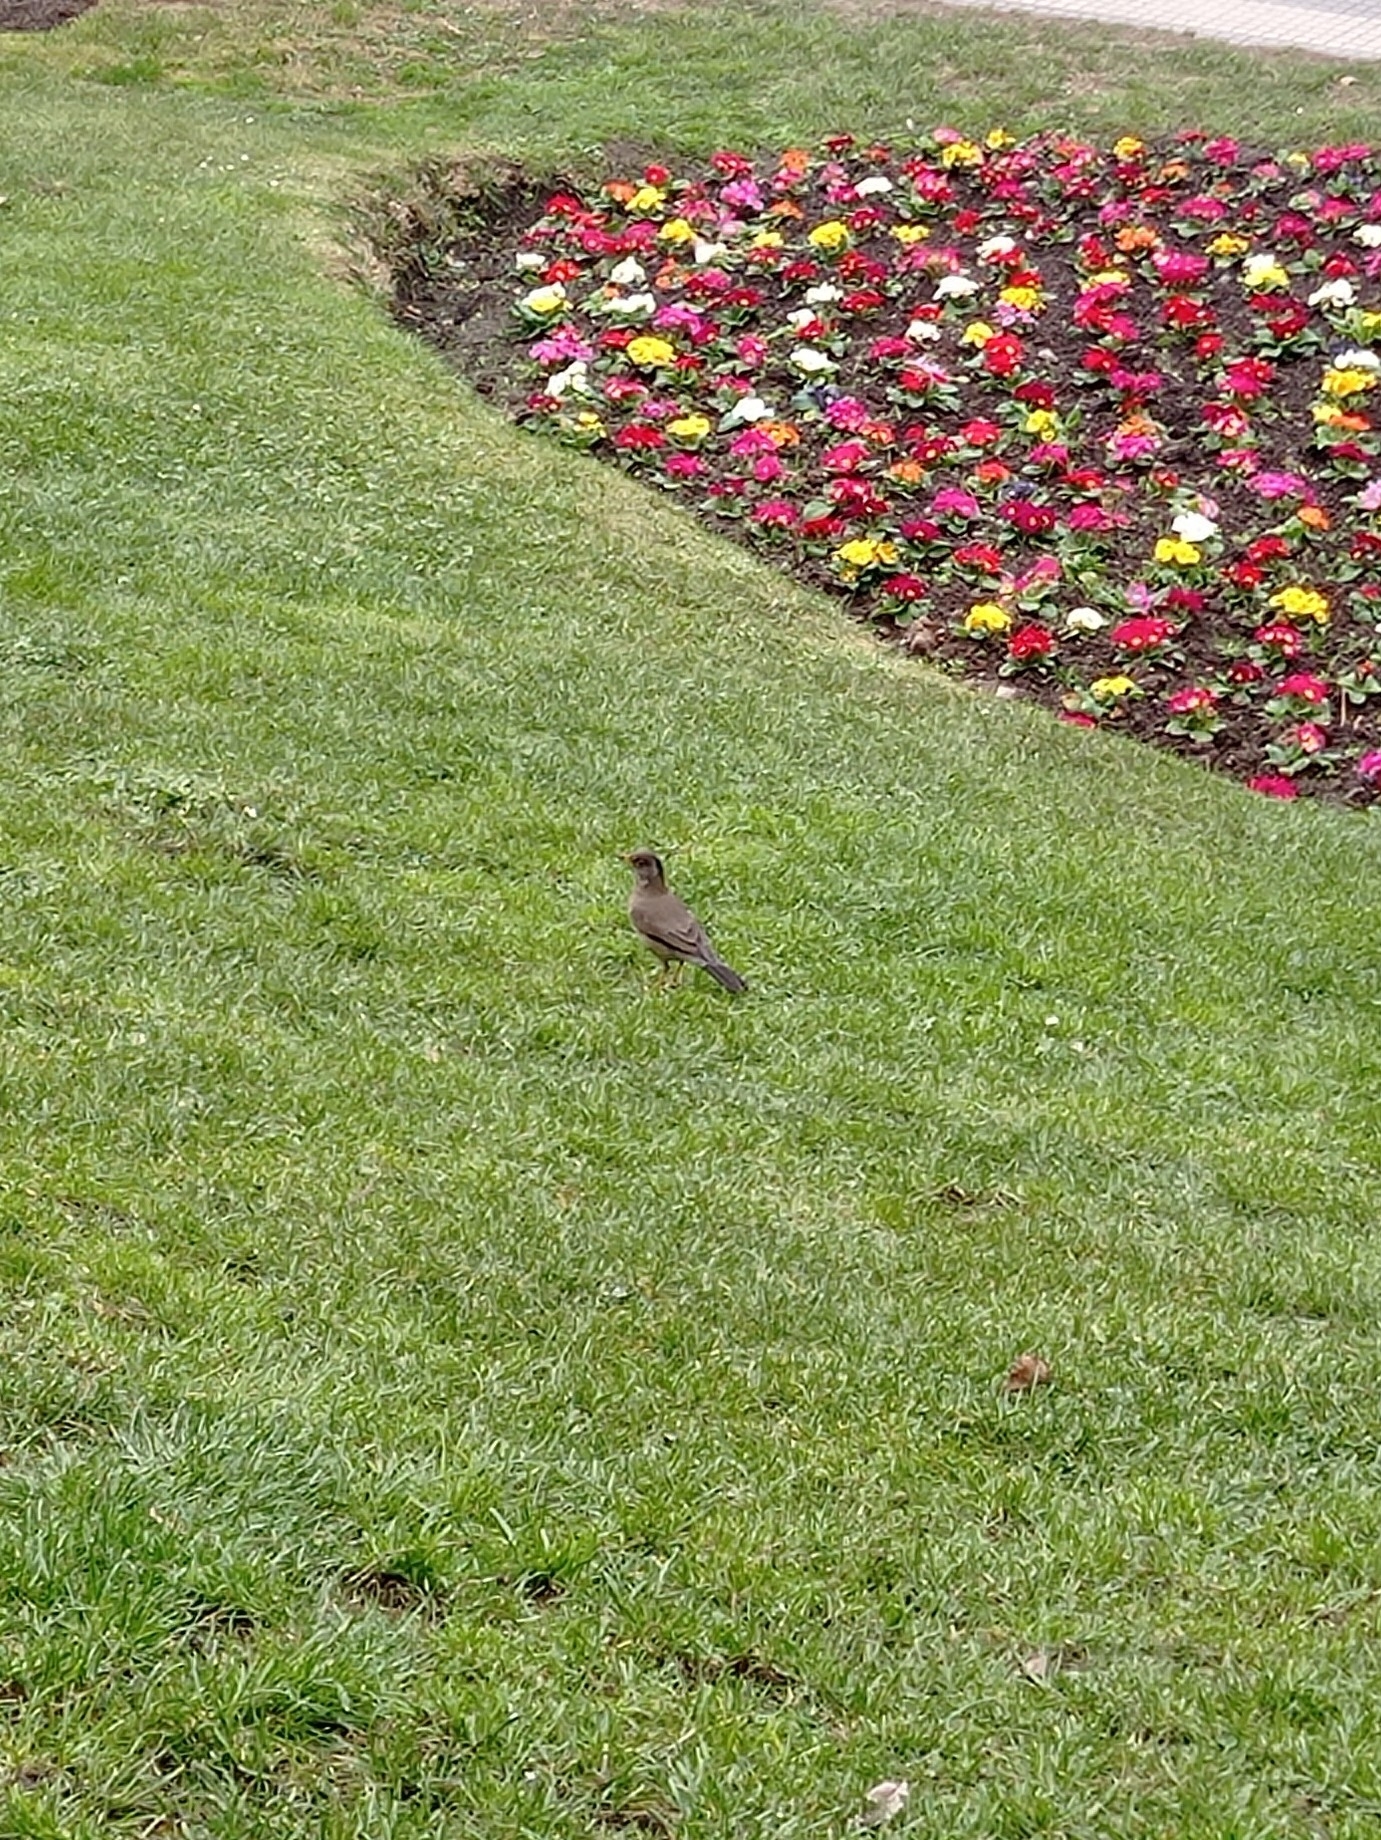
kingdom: Animalia
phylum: Chordata
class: Aves
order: Passeriformes
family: Turdidae
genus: Turdus
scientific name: Turdus falcklandii
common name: Austral thrush
